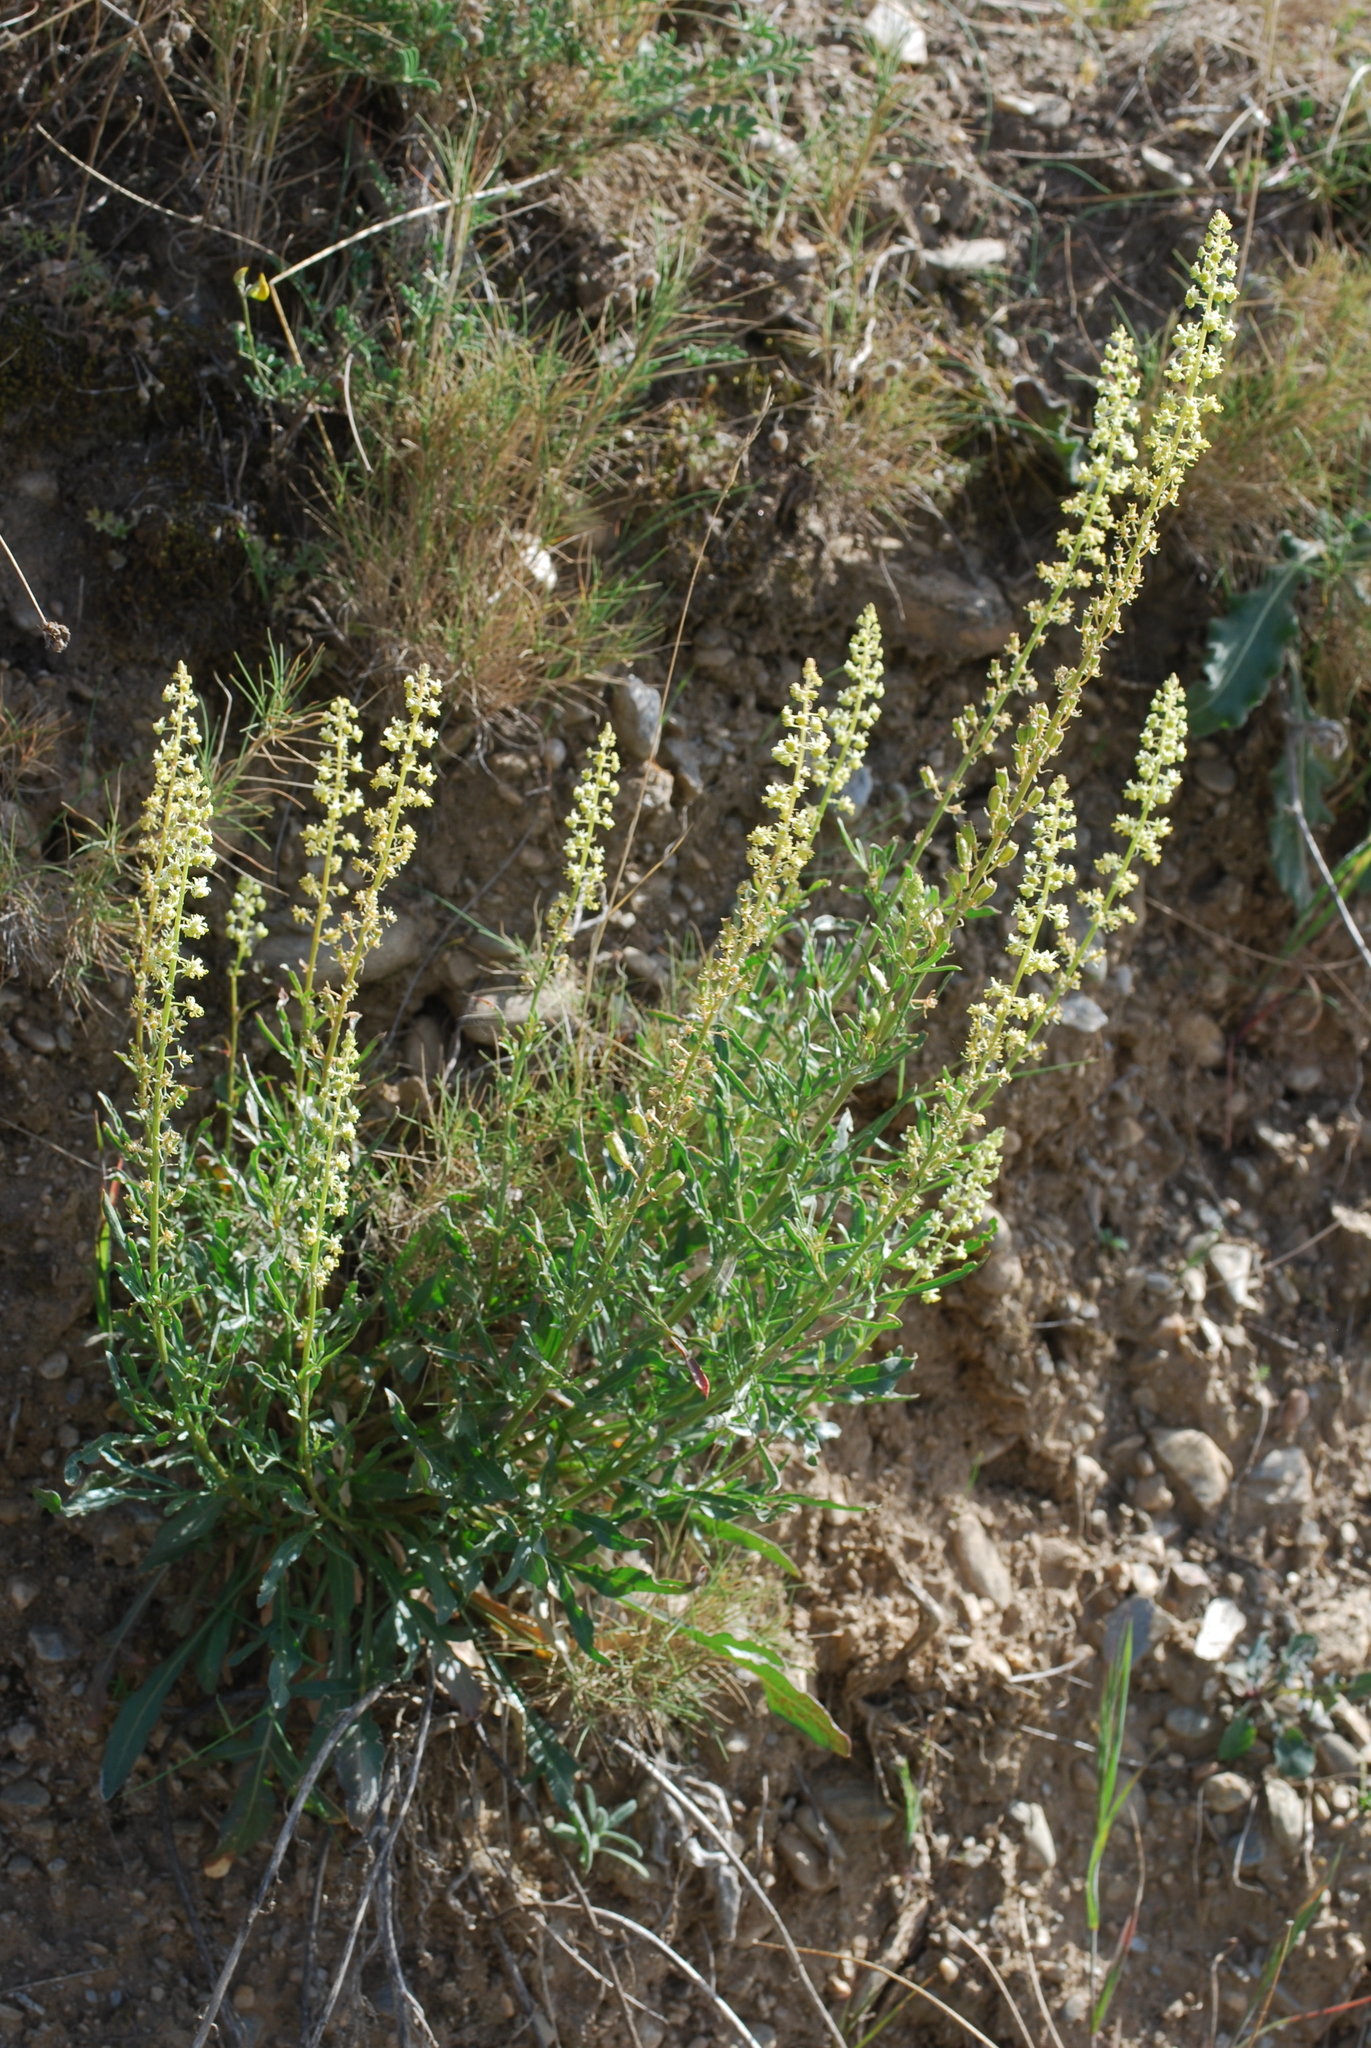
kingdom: Plantae
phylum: Tracheophyta
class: Magnoliopsida
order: Brassicales
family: Resedaceae
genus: Reseda
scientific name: Reseda lutea
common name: Wild mignonette
